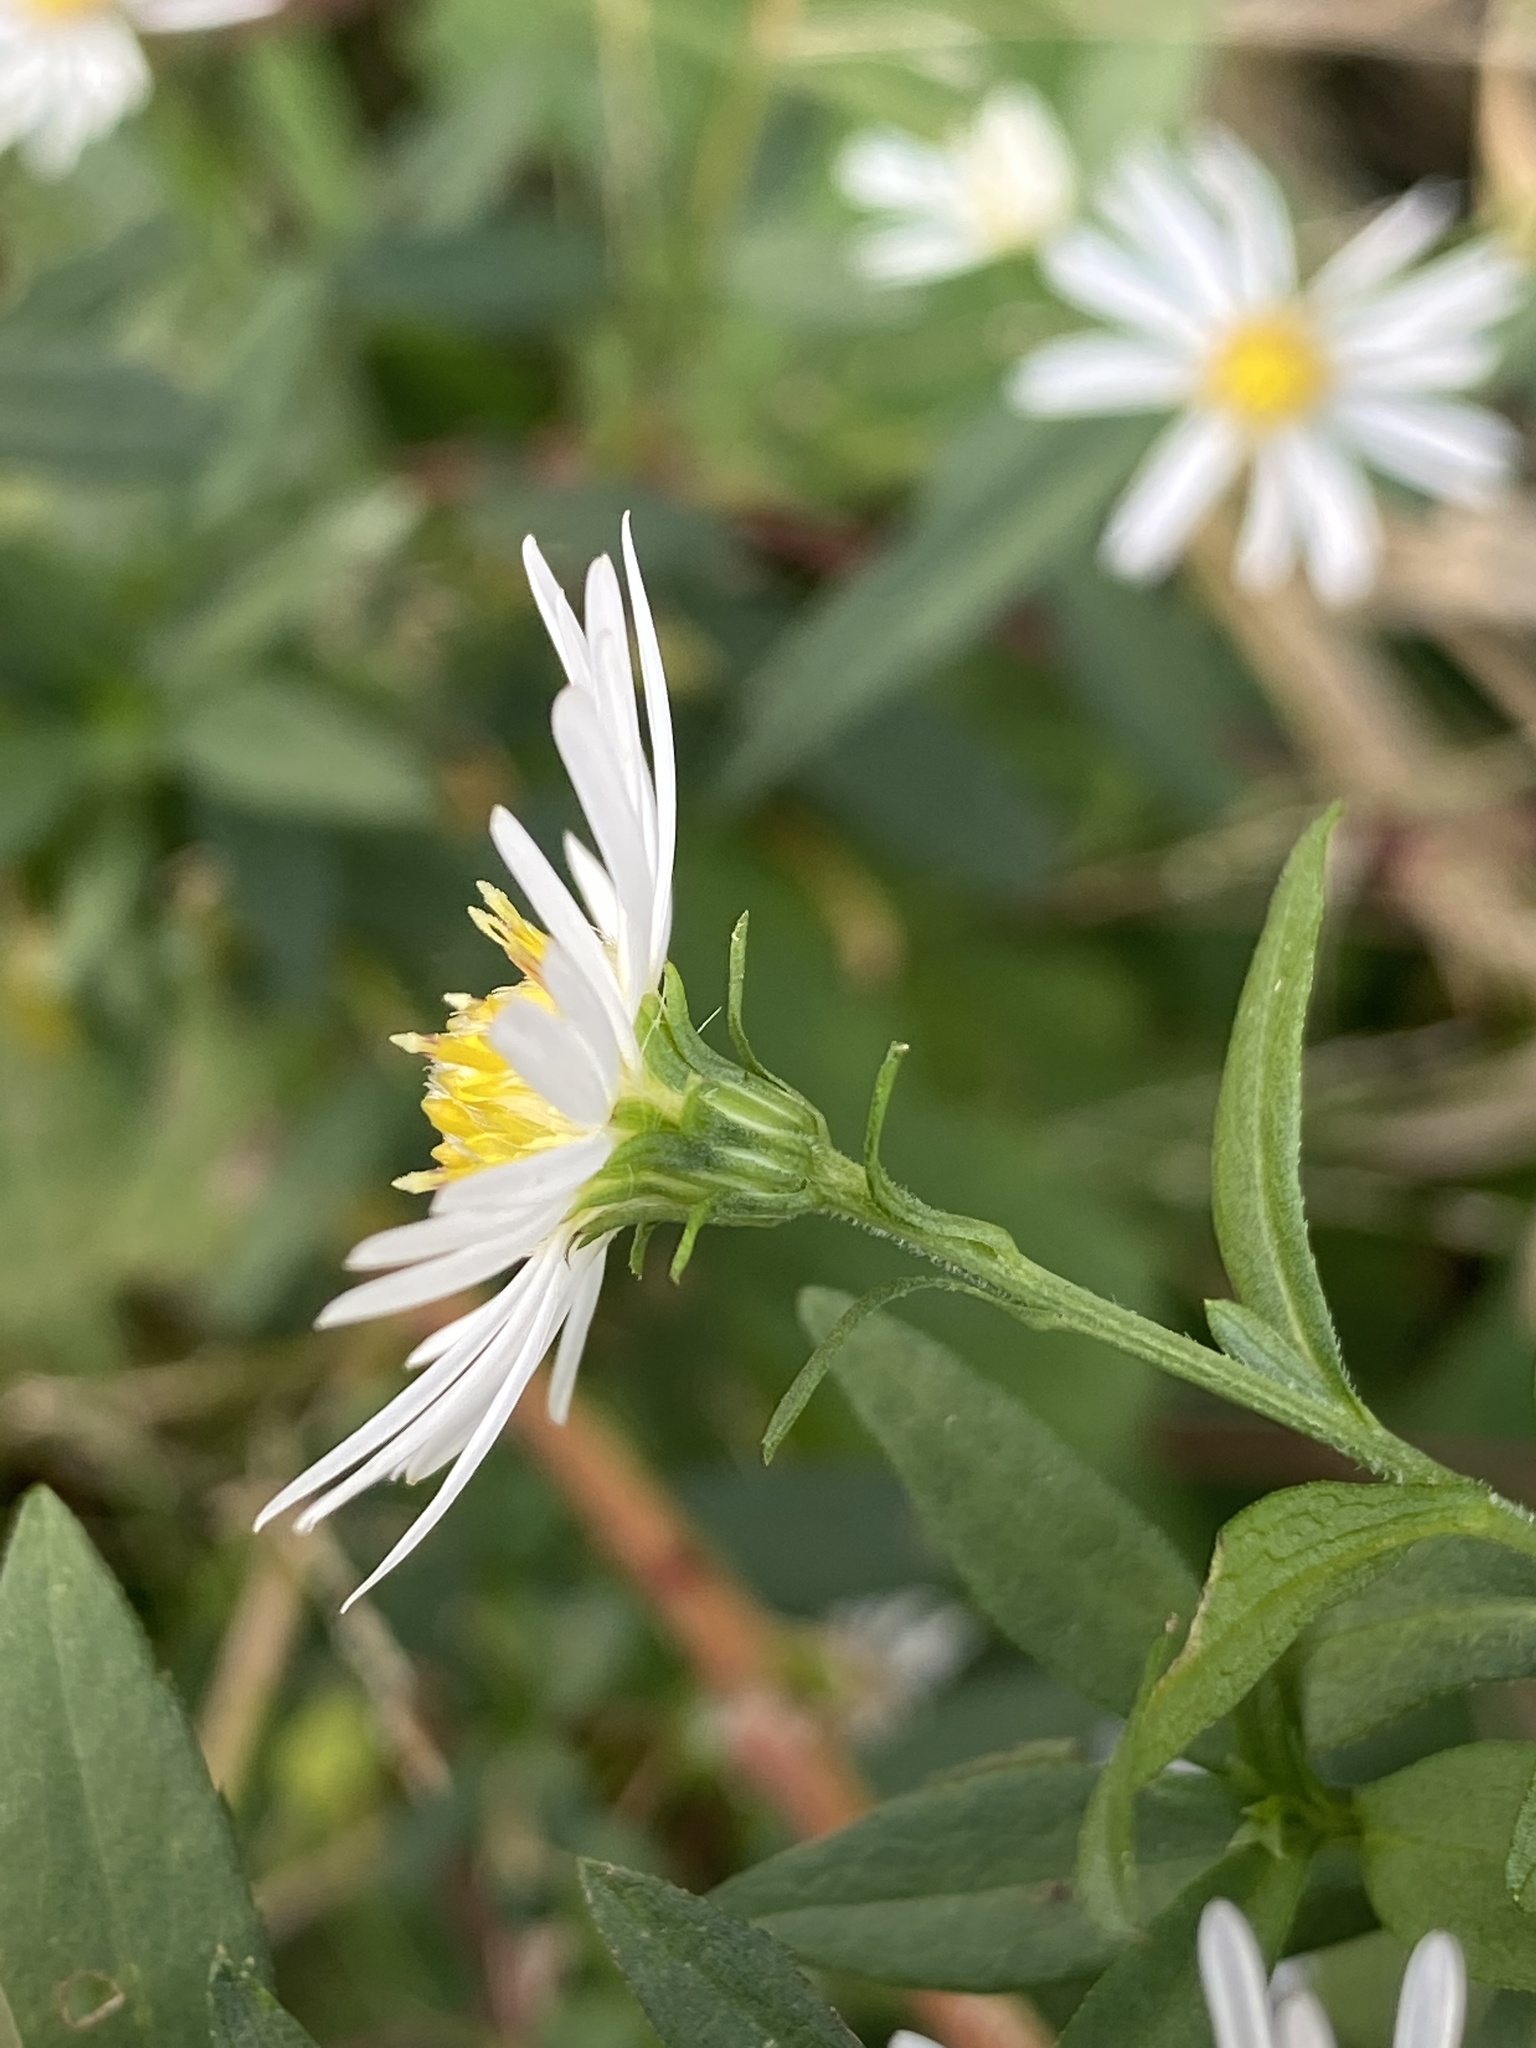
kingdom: Plantae
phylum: Tracheophyta
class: Magnoliopsida
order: Asterales
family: Asteraceae
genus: Symphyotrichum
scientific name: Symphyotrichum lanceolatum
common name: Panicled aster
